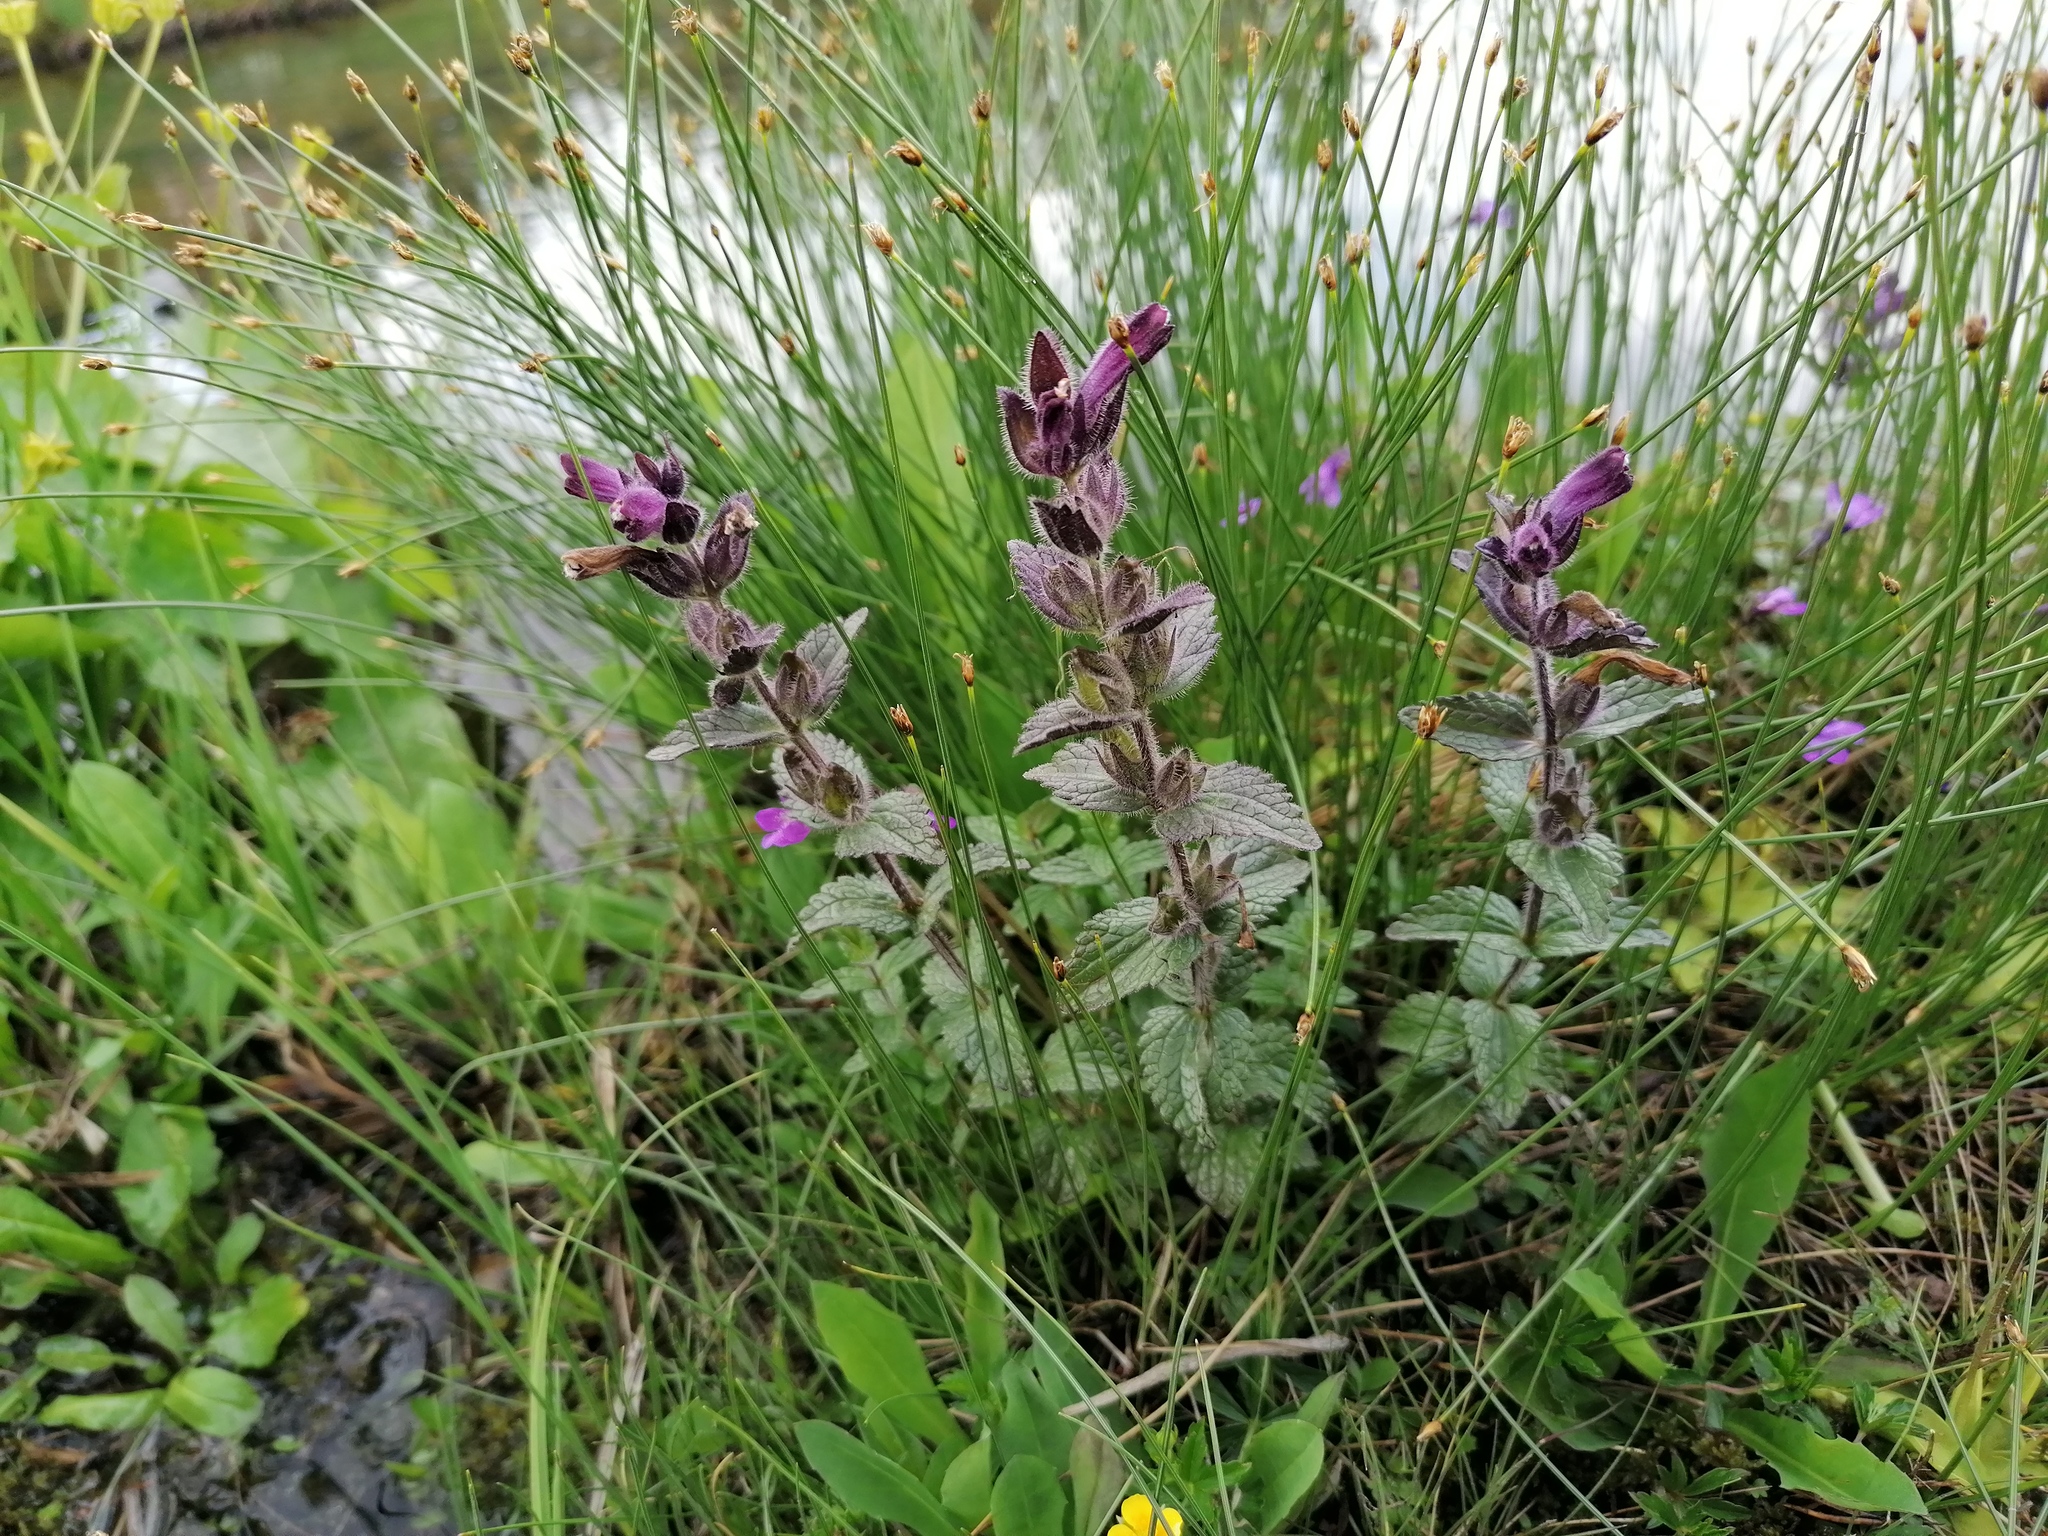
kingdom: Plantae
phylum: Tracheophyta
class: Magnoliopsida
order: Lamiales
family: Orobanchaceae
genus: Bartsia
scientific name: Bartsia alpina
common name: Alpine bartsia
